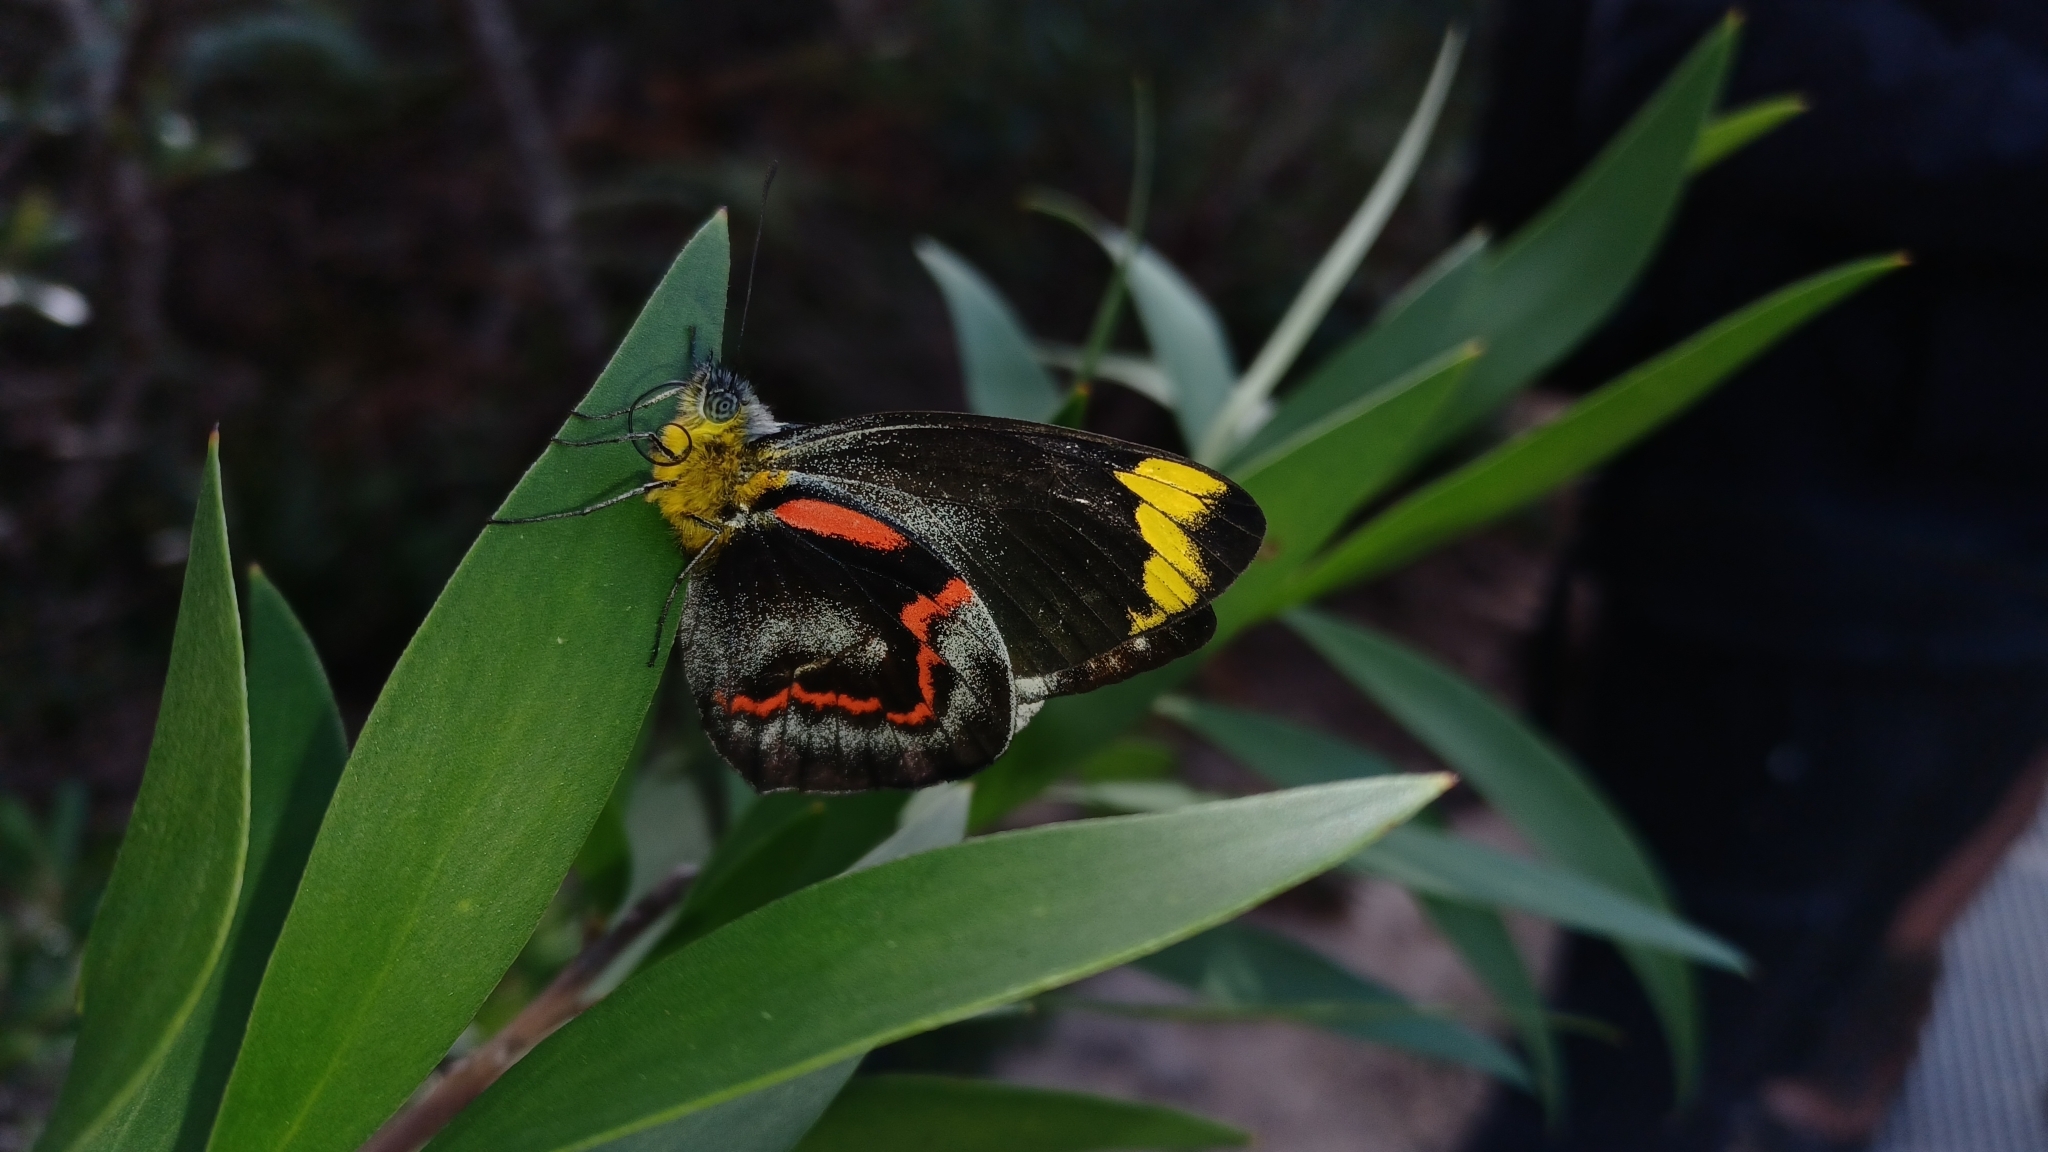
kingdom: Animalia
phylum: Arthropoda
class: Insecta
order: Lepidoptera
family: Pieridae
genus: Delias
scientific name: Delias nigrina
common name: Black jezebel
